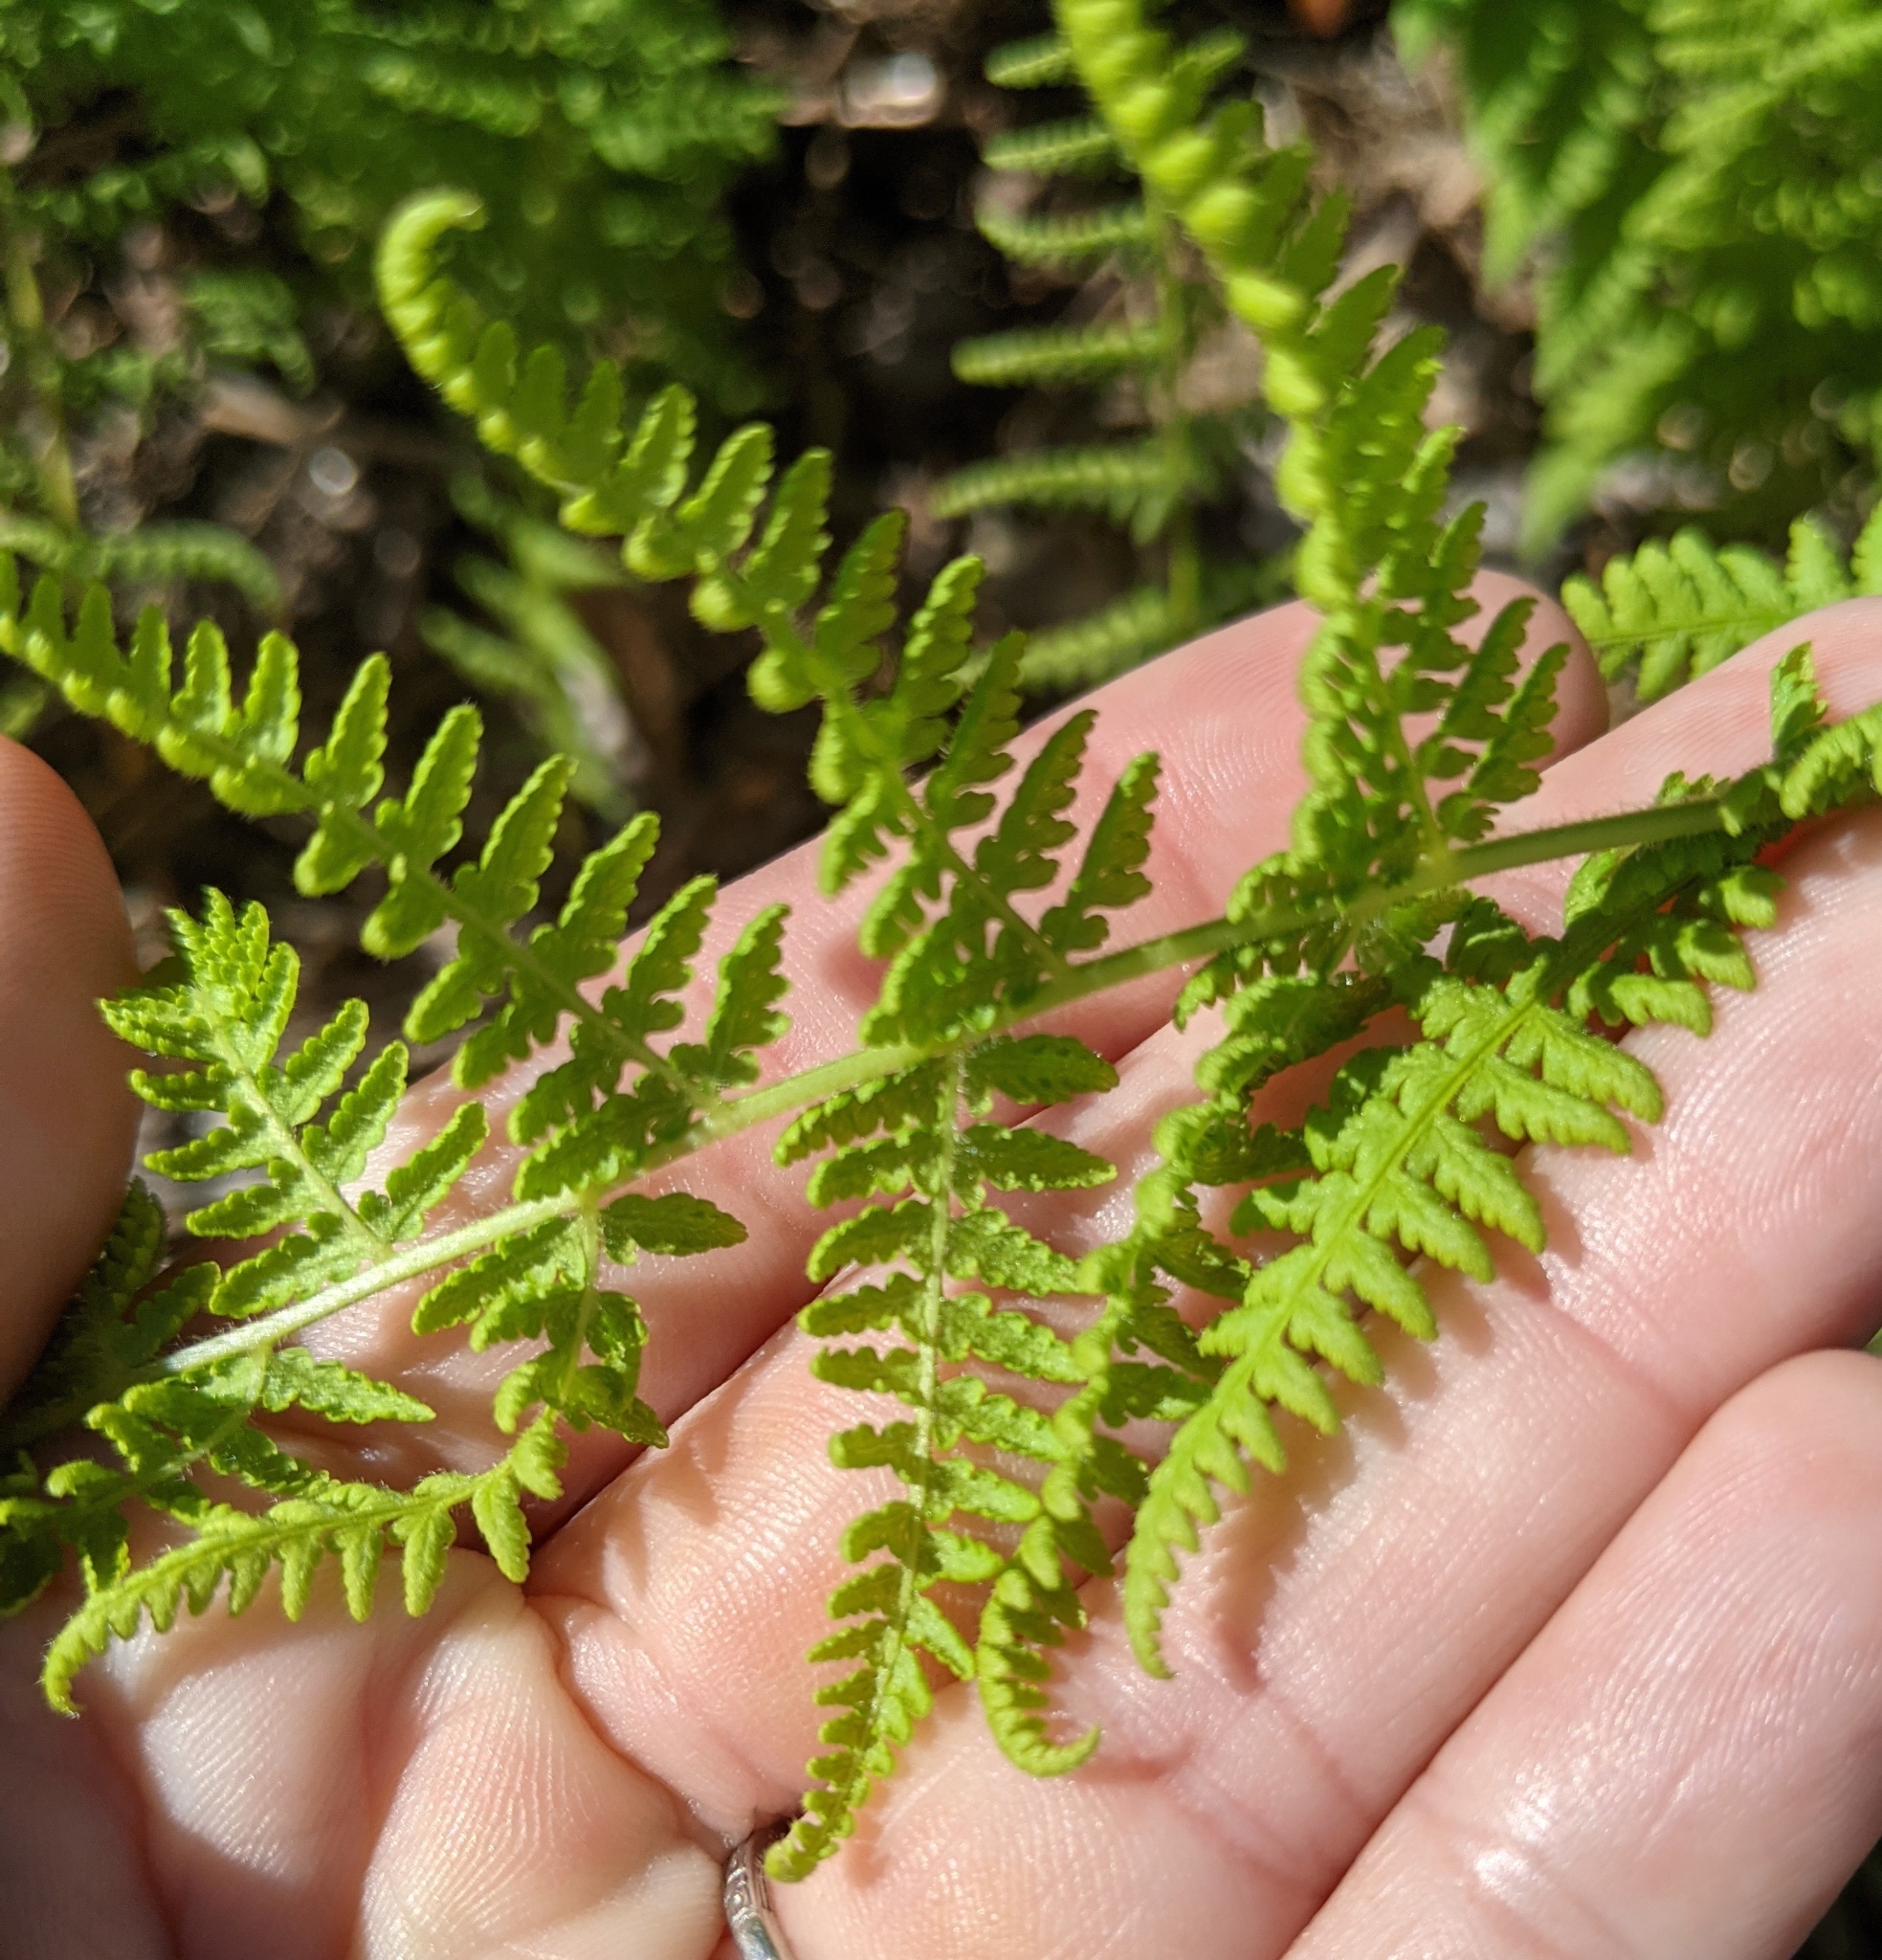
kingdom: Plantae
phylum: Tracheophyta
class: Polypodiopsida
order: Polypodiales
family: Dennstaedtiaceae
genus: Sitobolium
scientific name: Sitobolium punctilobum
